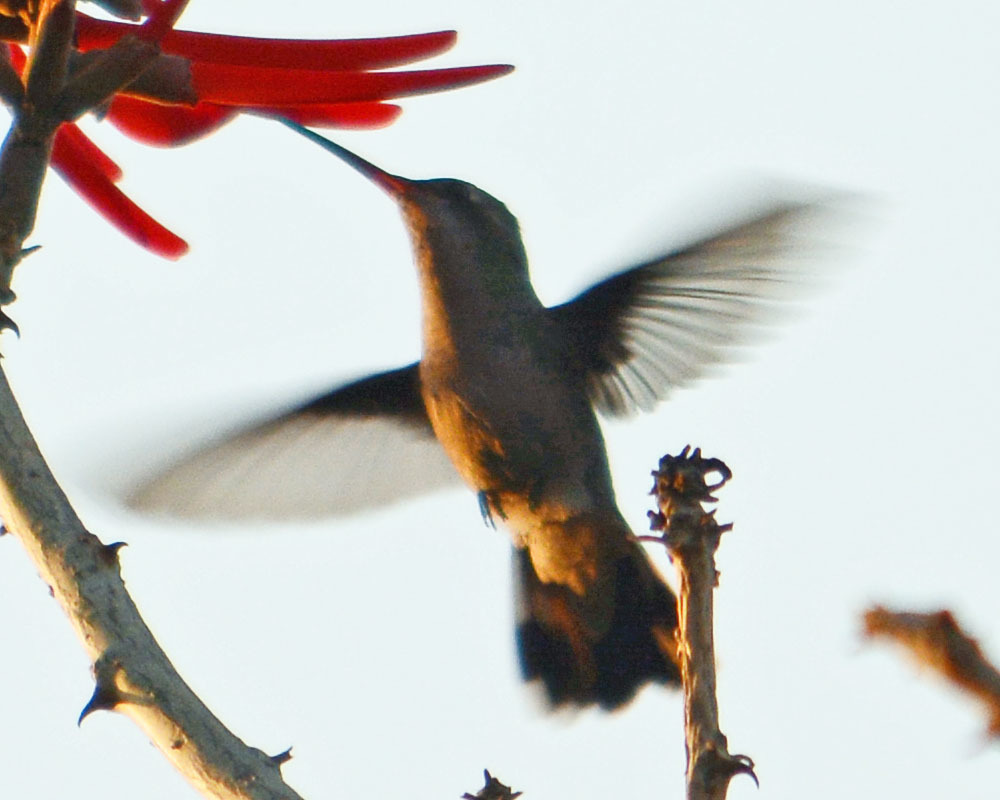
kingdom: Animalia
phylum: Chordata
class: Aves
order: Apodiformes
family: Trochilidae
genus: Cynanthus
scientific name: Cynanthus latirostris
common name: Broad-billed hummingbird
